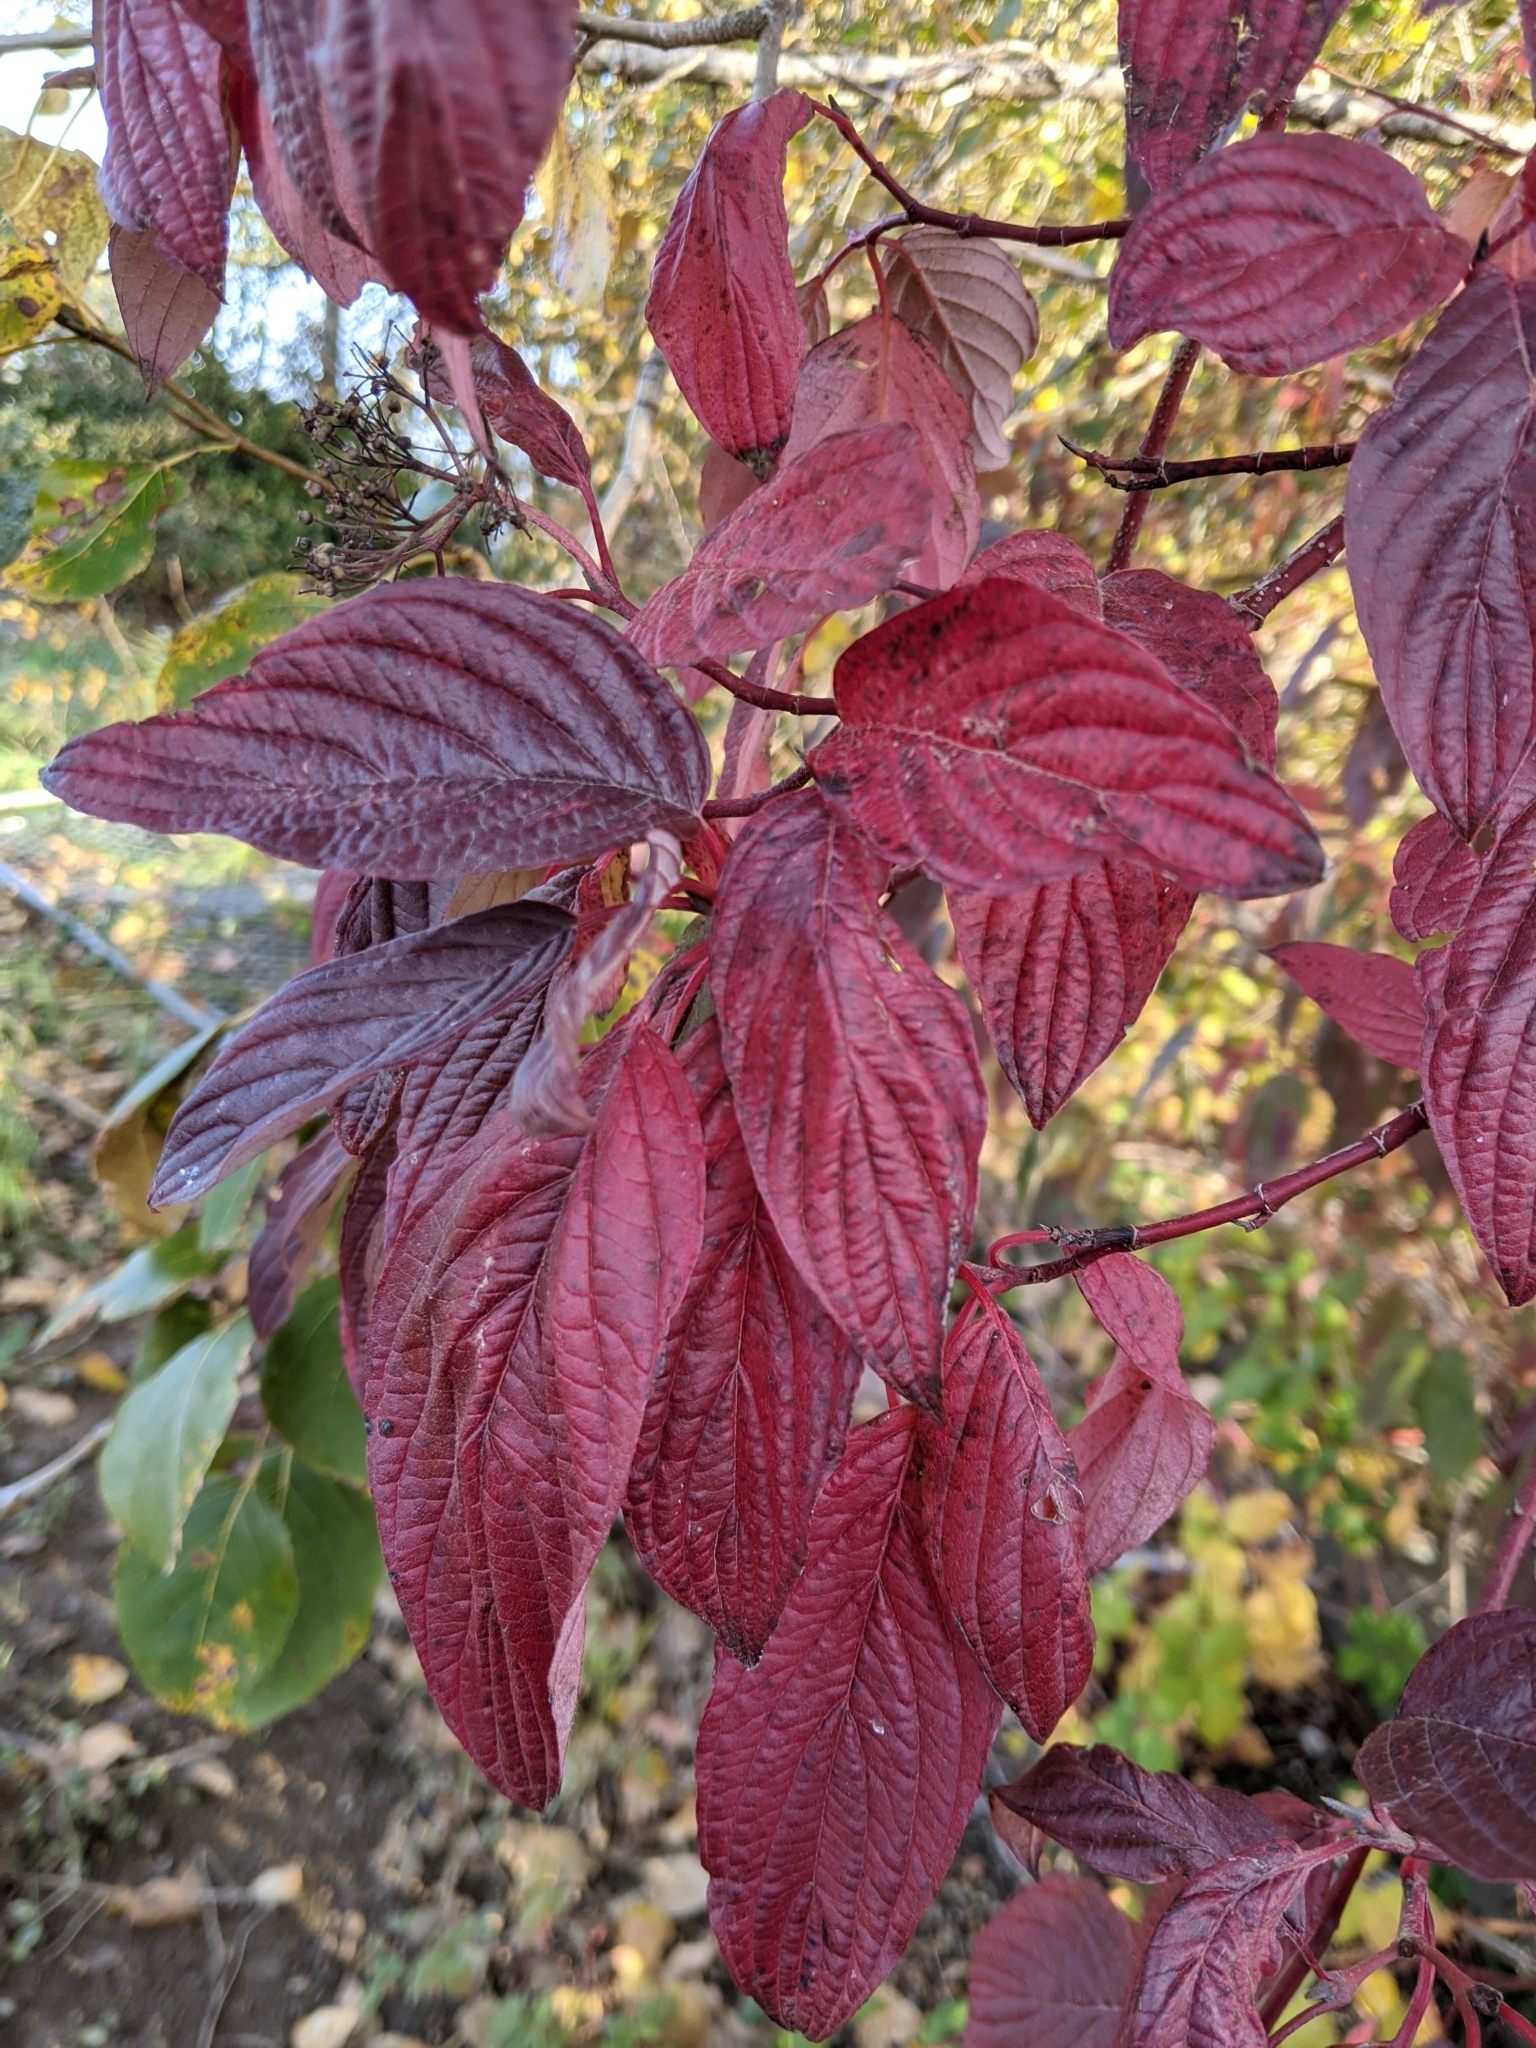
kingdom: Plantae
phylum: Tracheophyta
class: Magnoliopsida
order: Cornales
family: Cornaceae
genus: Cornus
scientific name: Cornus sericea
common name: Red-osier dogwood
